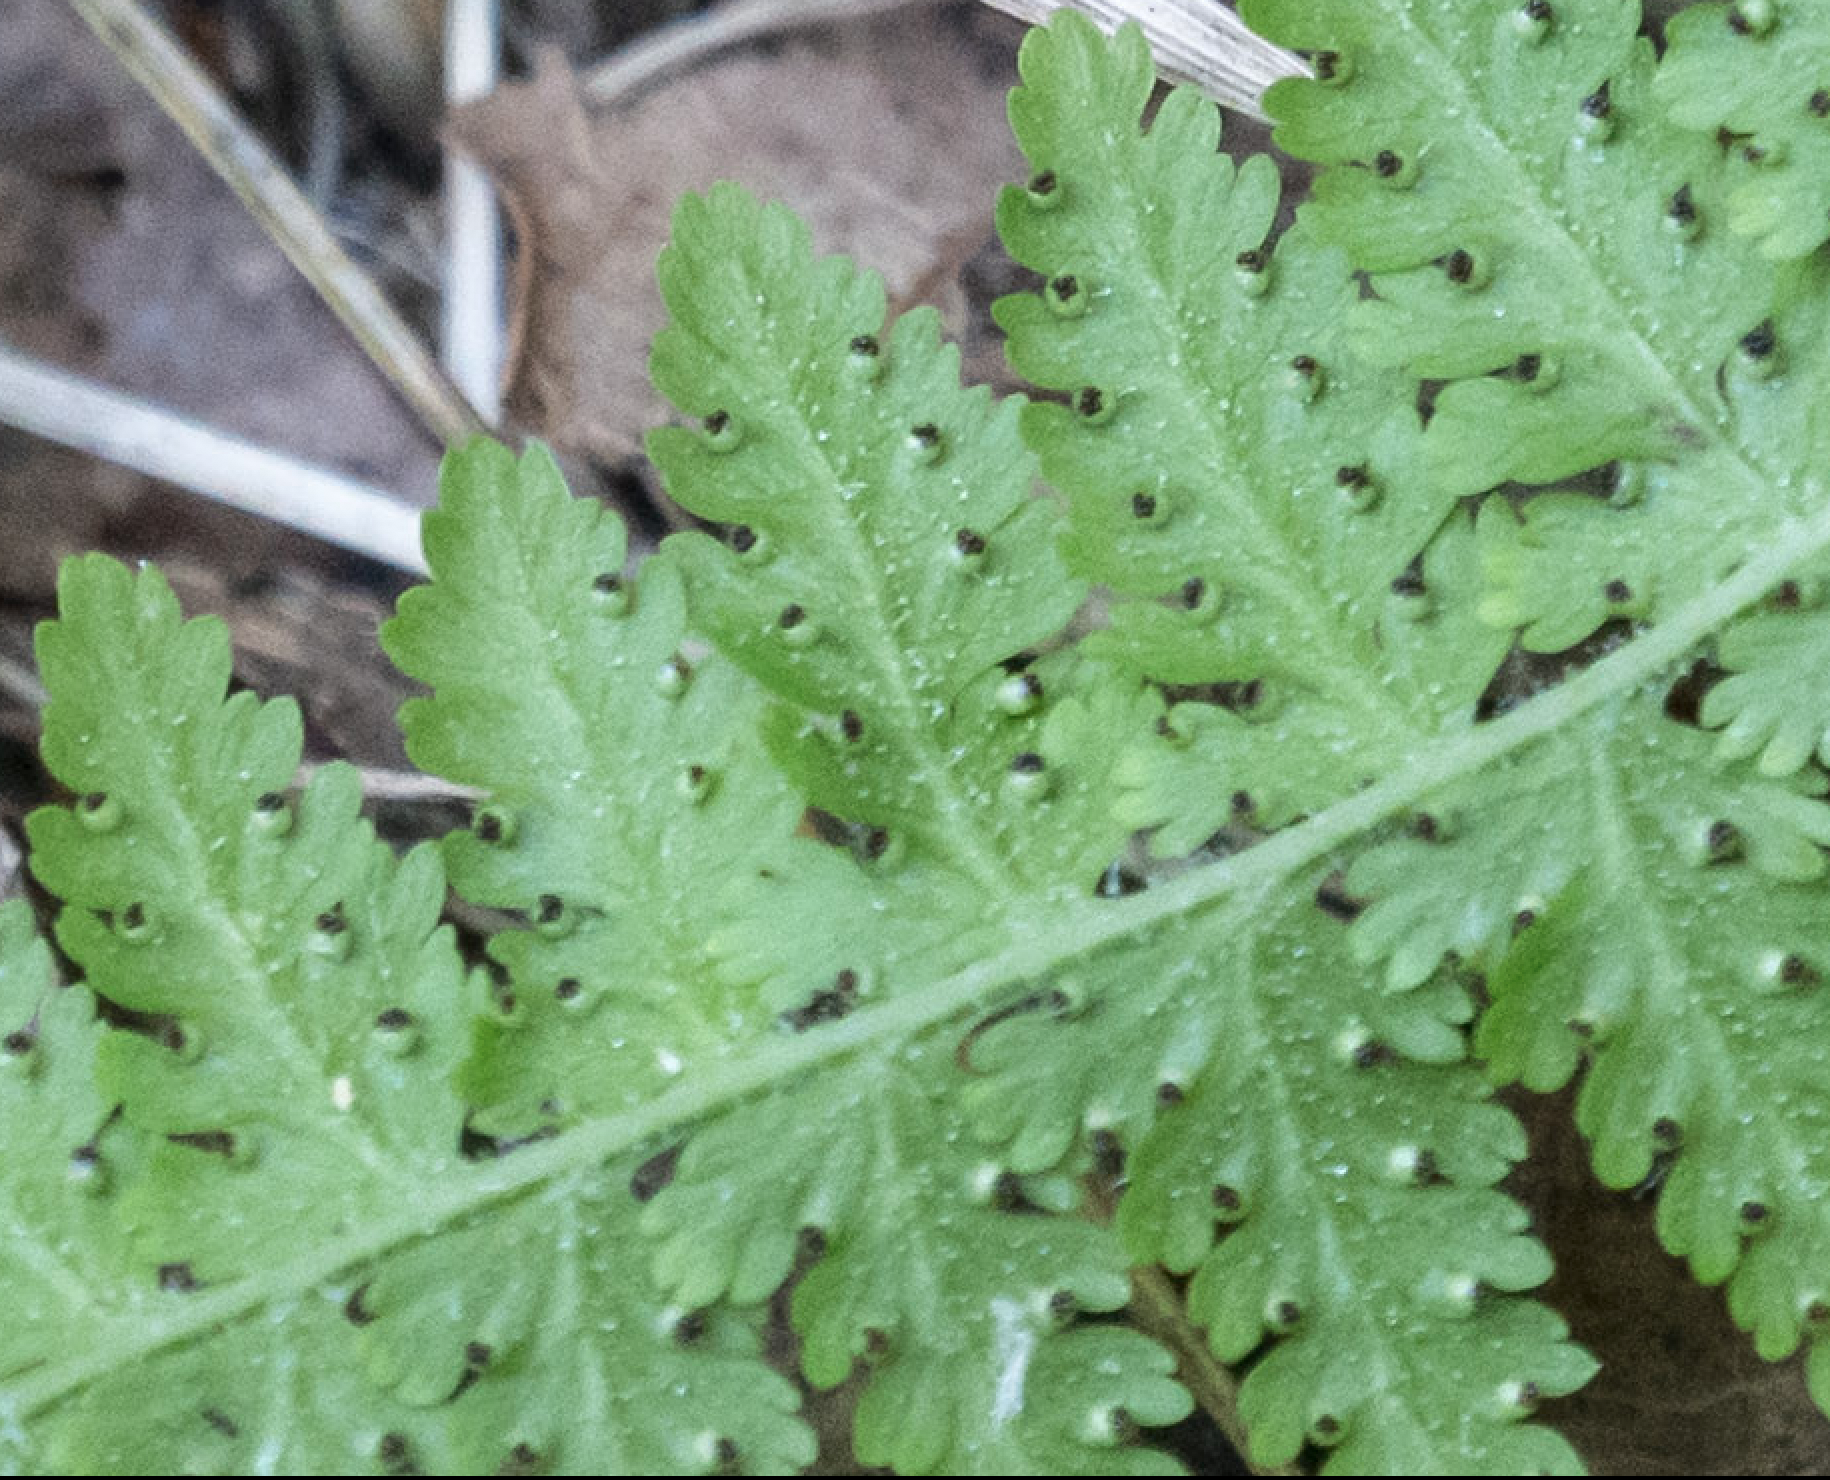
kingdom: Plantae
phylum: Tracheophyta
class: Polypodiopsida
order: Polypodiales
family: Dennstaedtiaceae
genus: Sitobolium
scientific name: Sitobolium punctilobum
